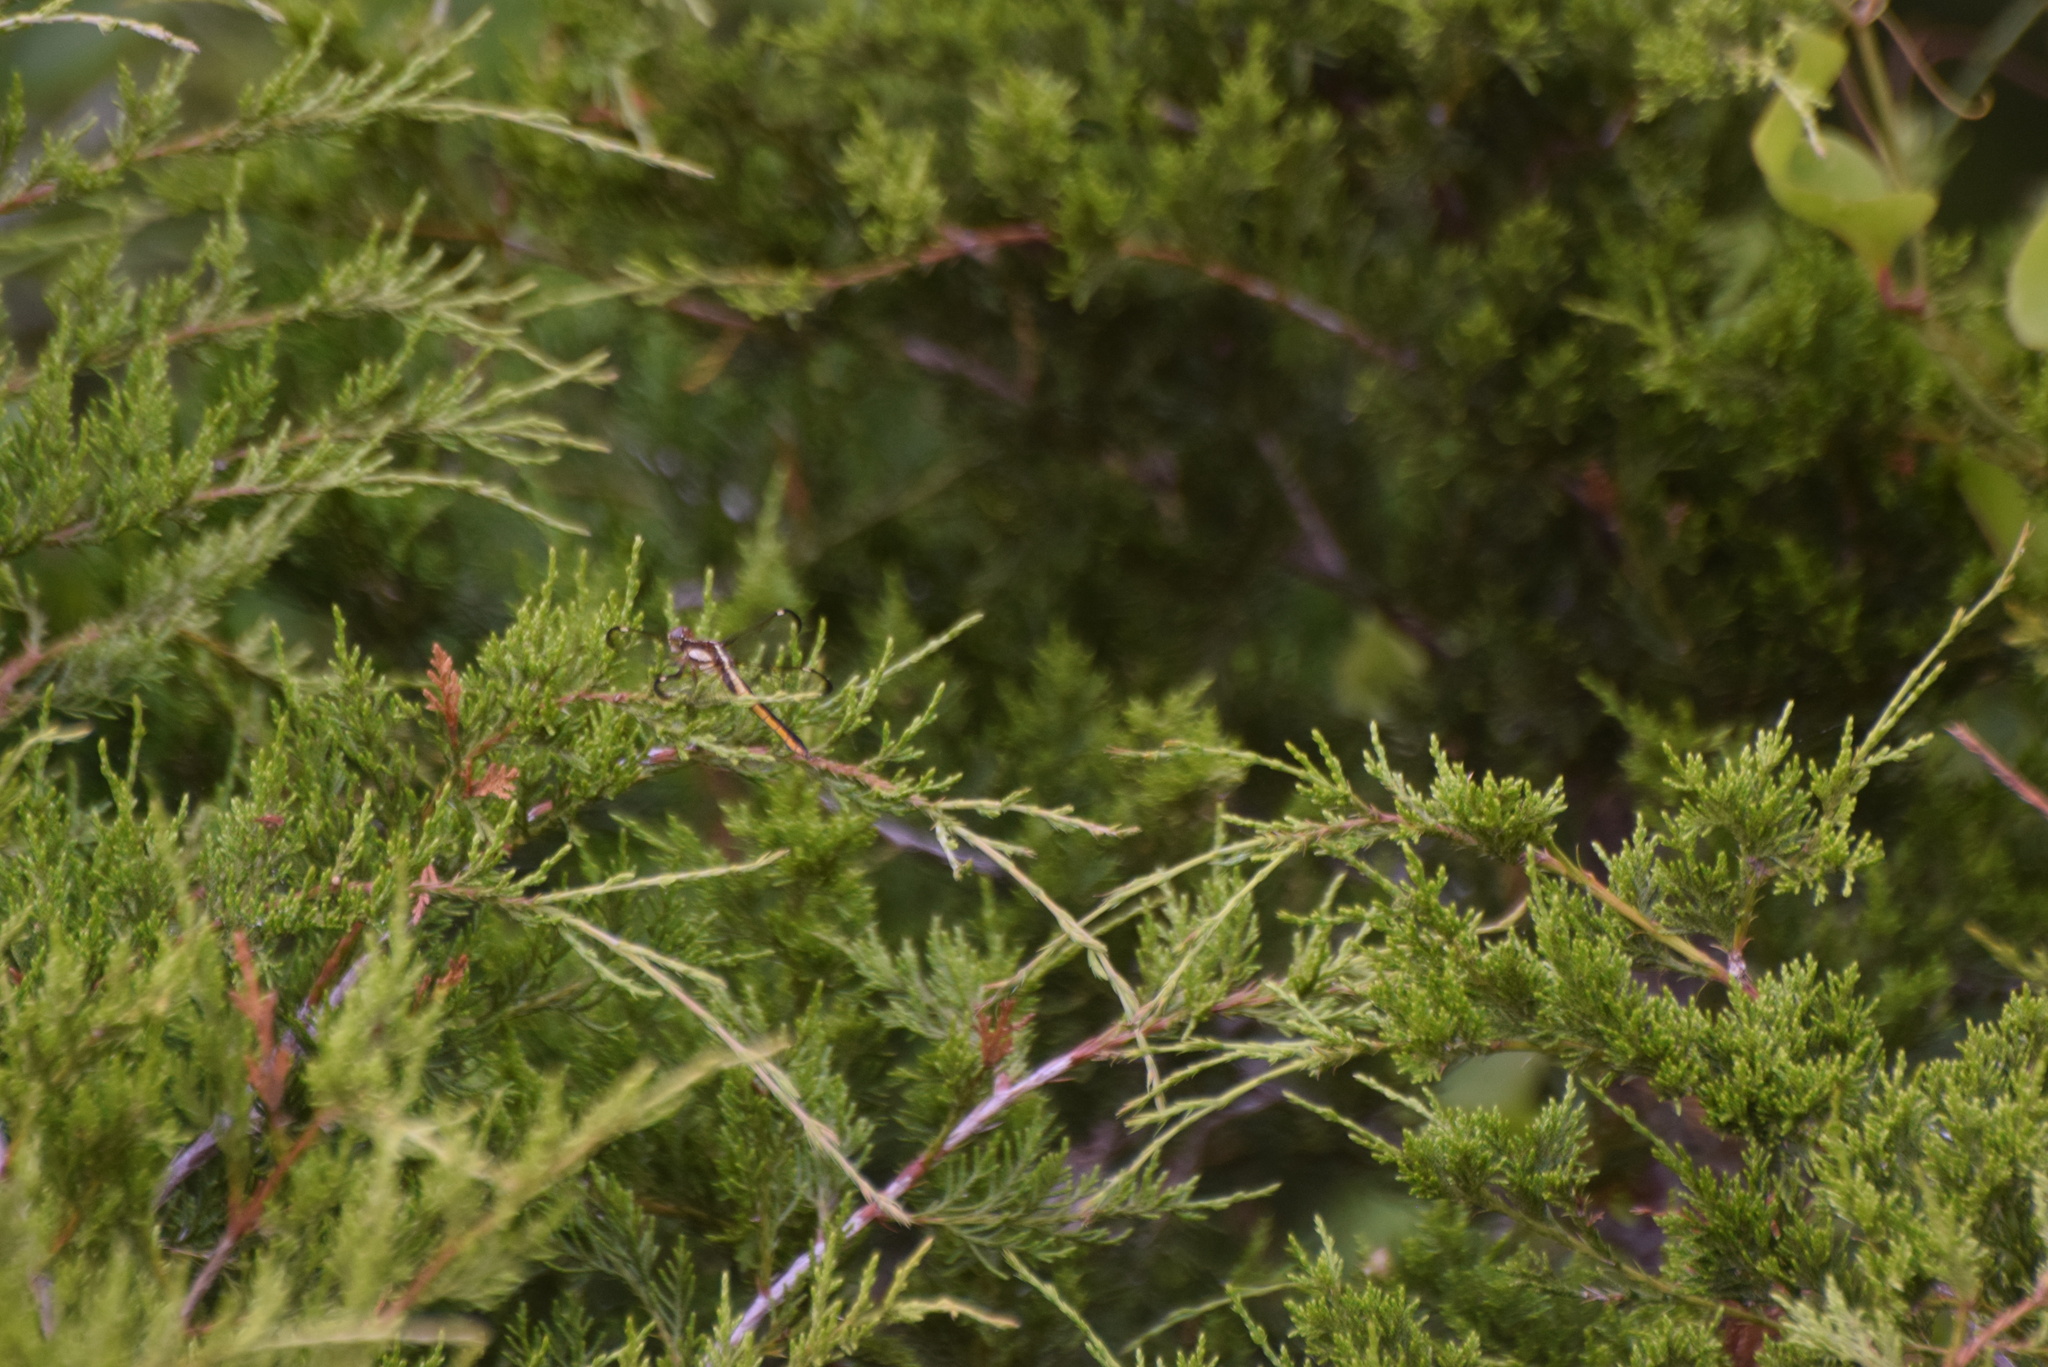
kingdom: Animalia
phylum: Arthropoda
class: Insecta
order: Odonata
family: Libellulidae
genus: Libellula
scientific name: Libellula cyanea
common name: Spangled skimmer
